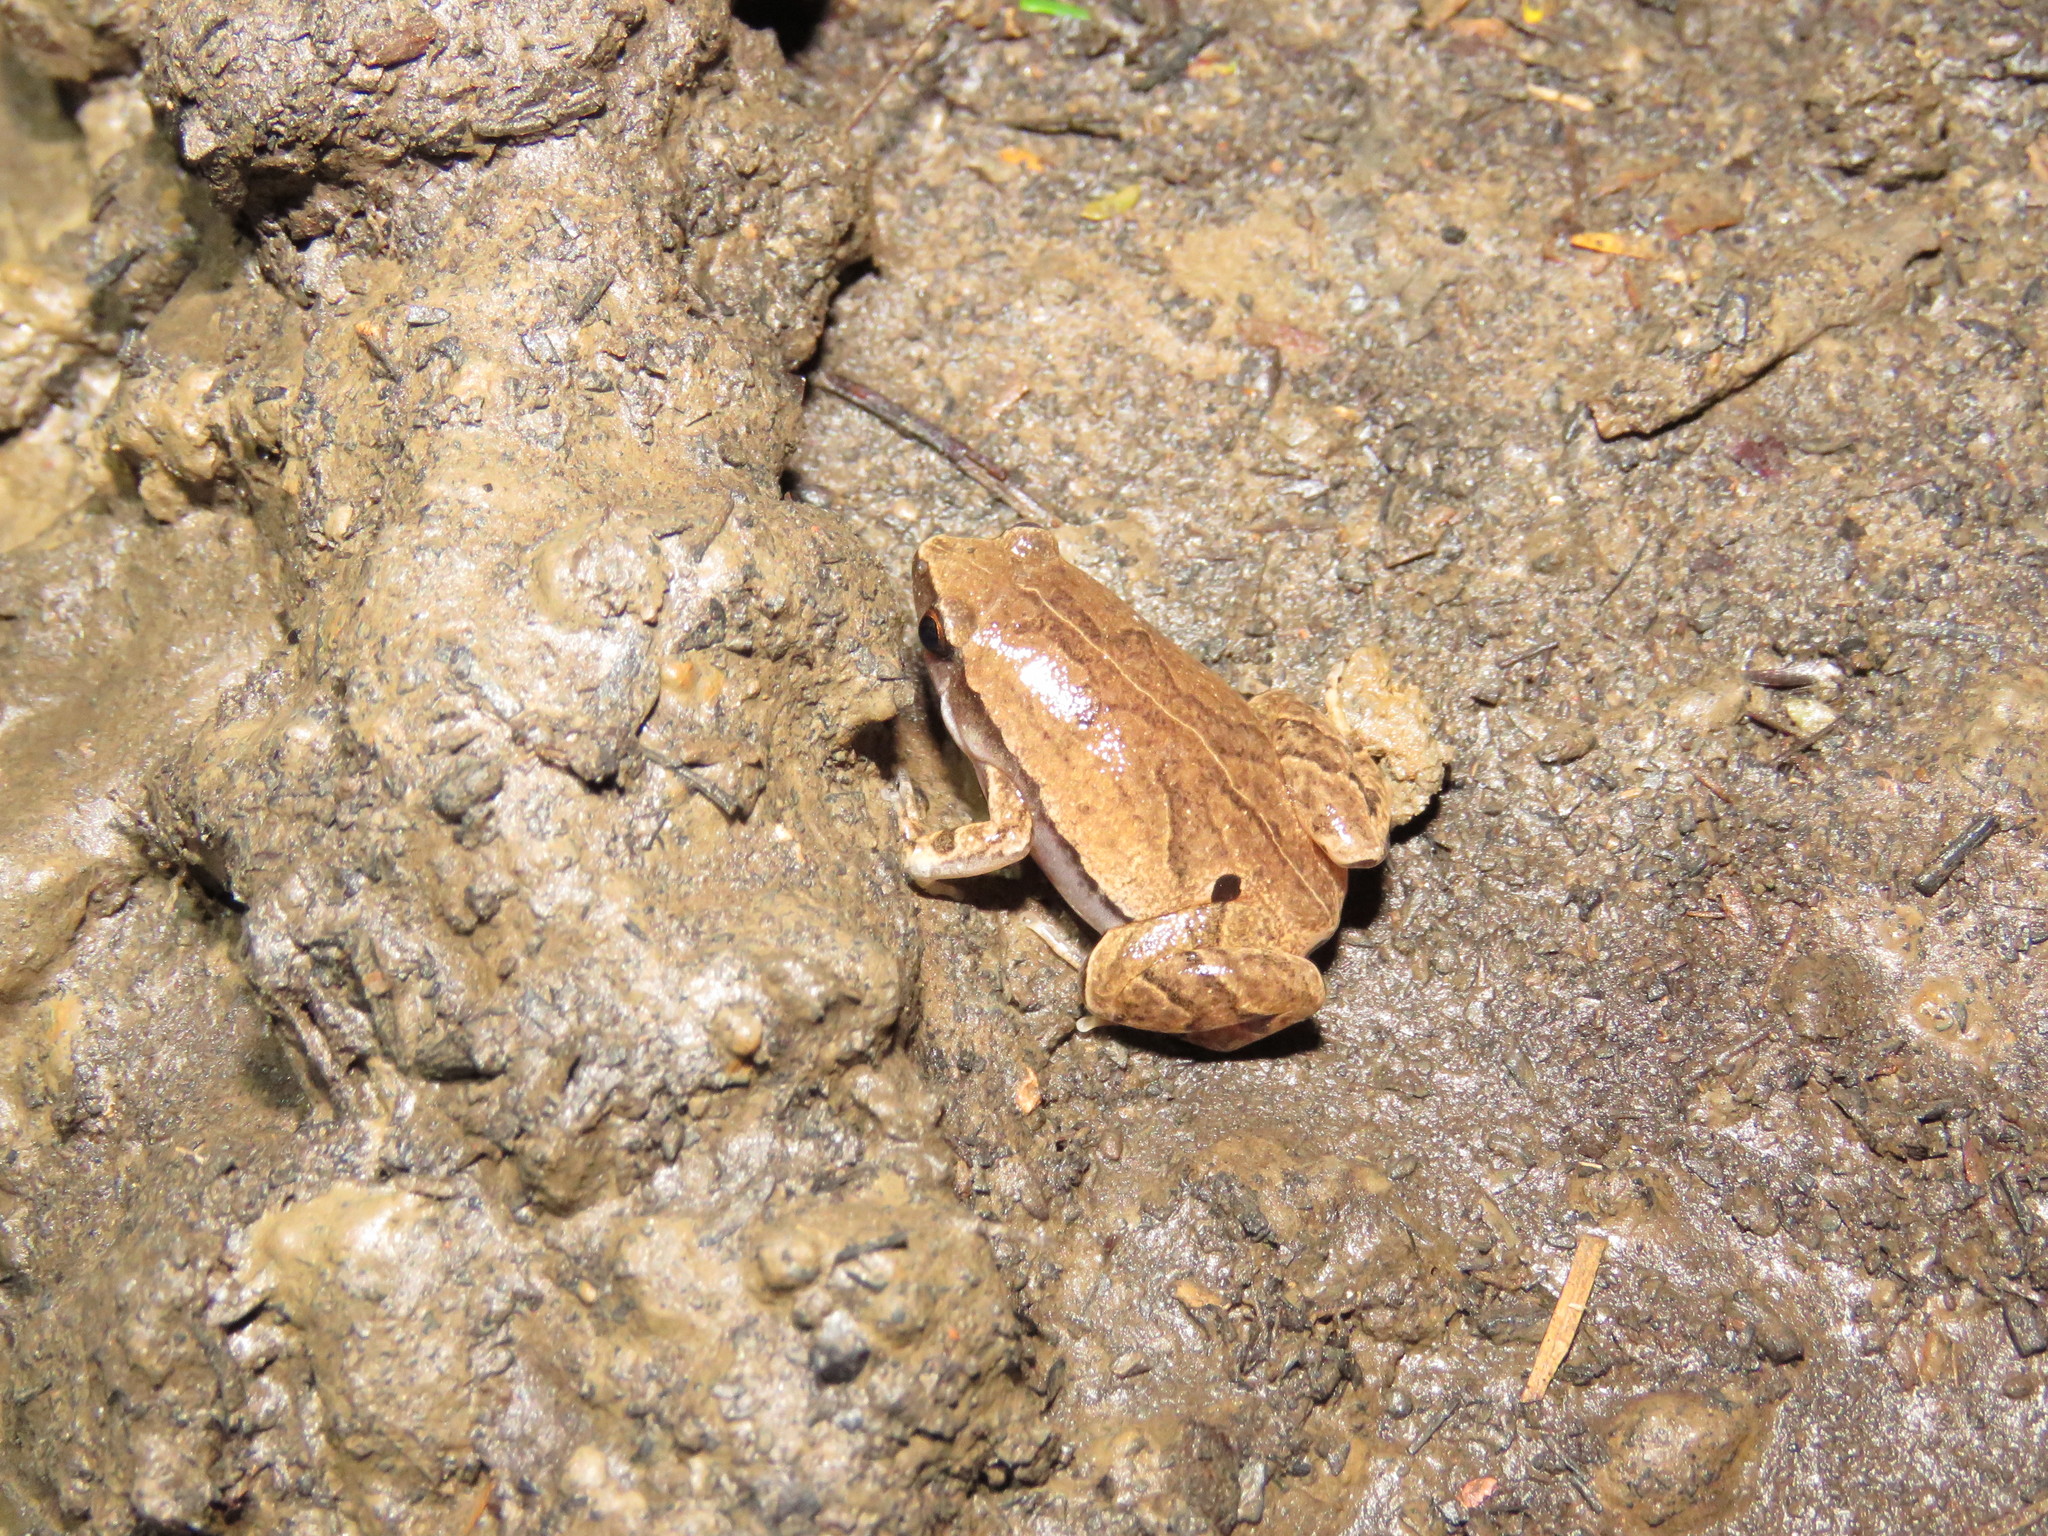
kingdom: Animalia
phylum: Chordata
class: Amphibia
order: Anura
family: Microhylidae
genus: Hamptophryne
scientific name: Hamptophryne boliviana
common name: Bolivian bleating frog
